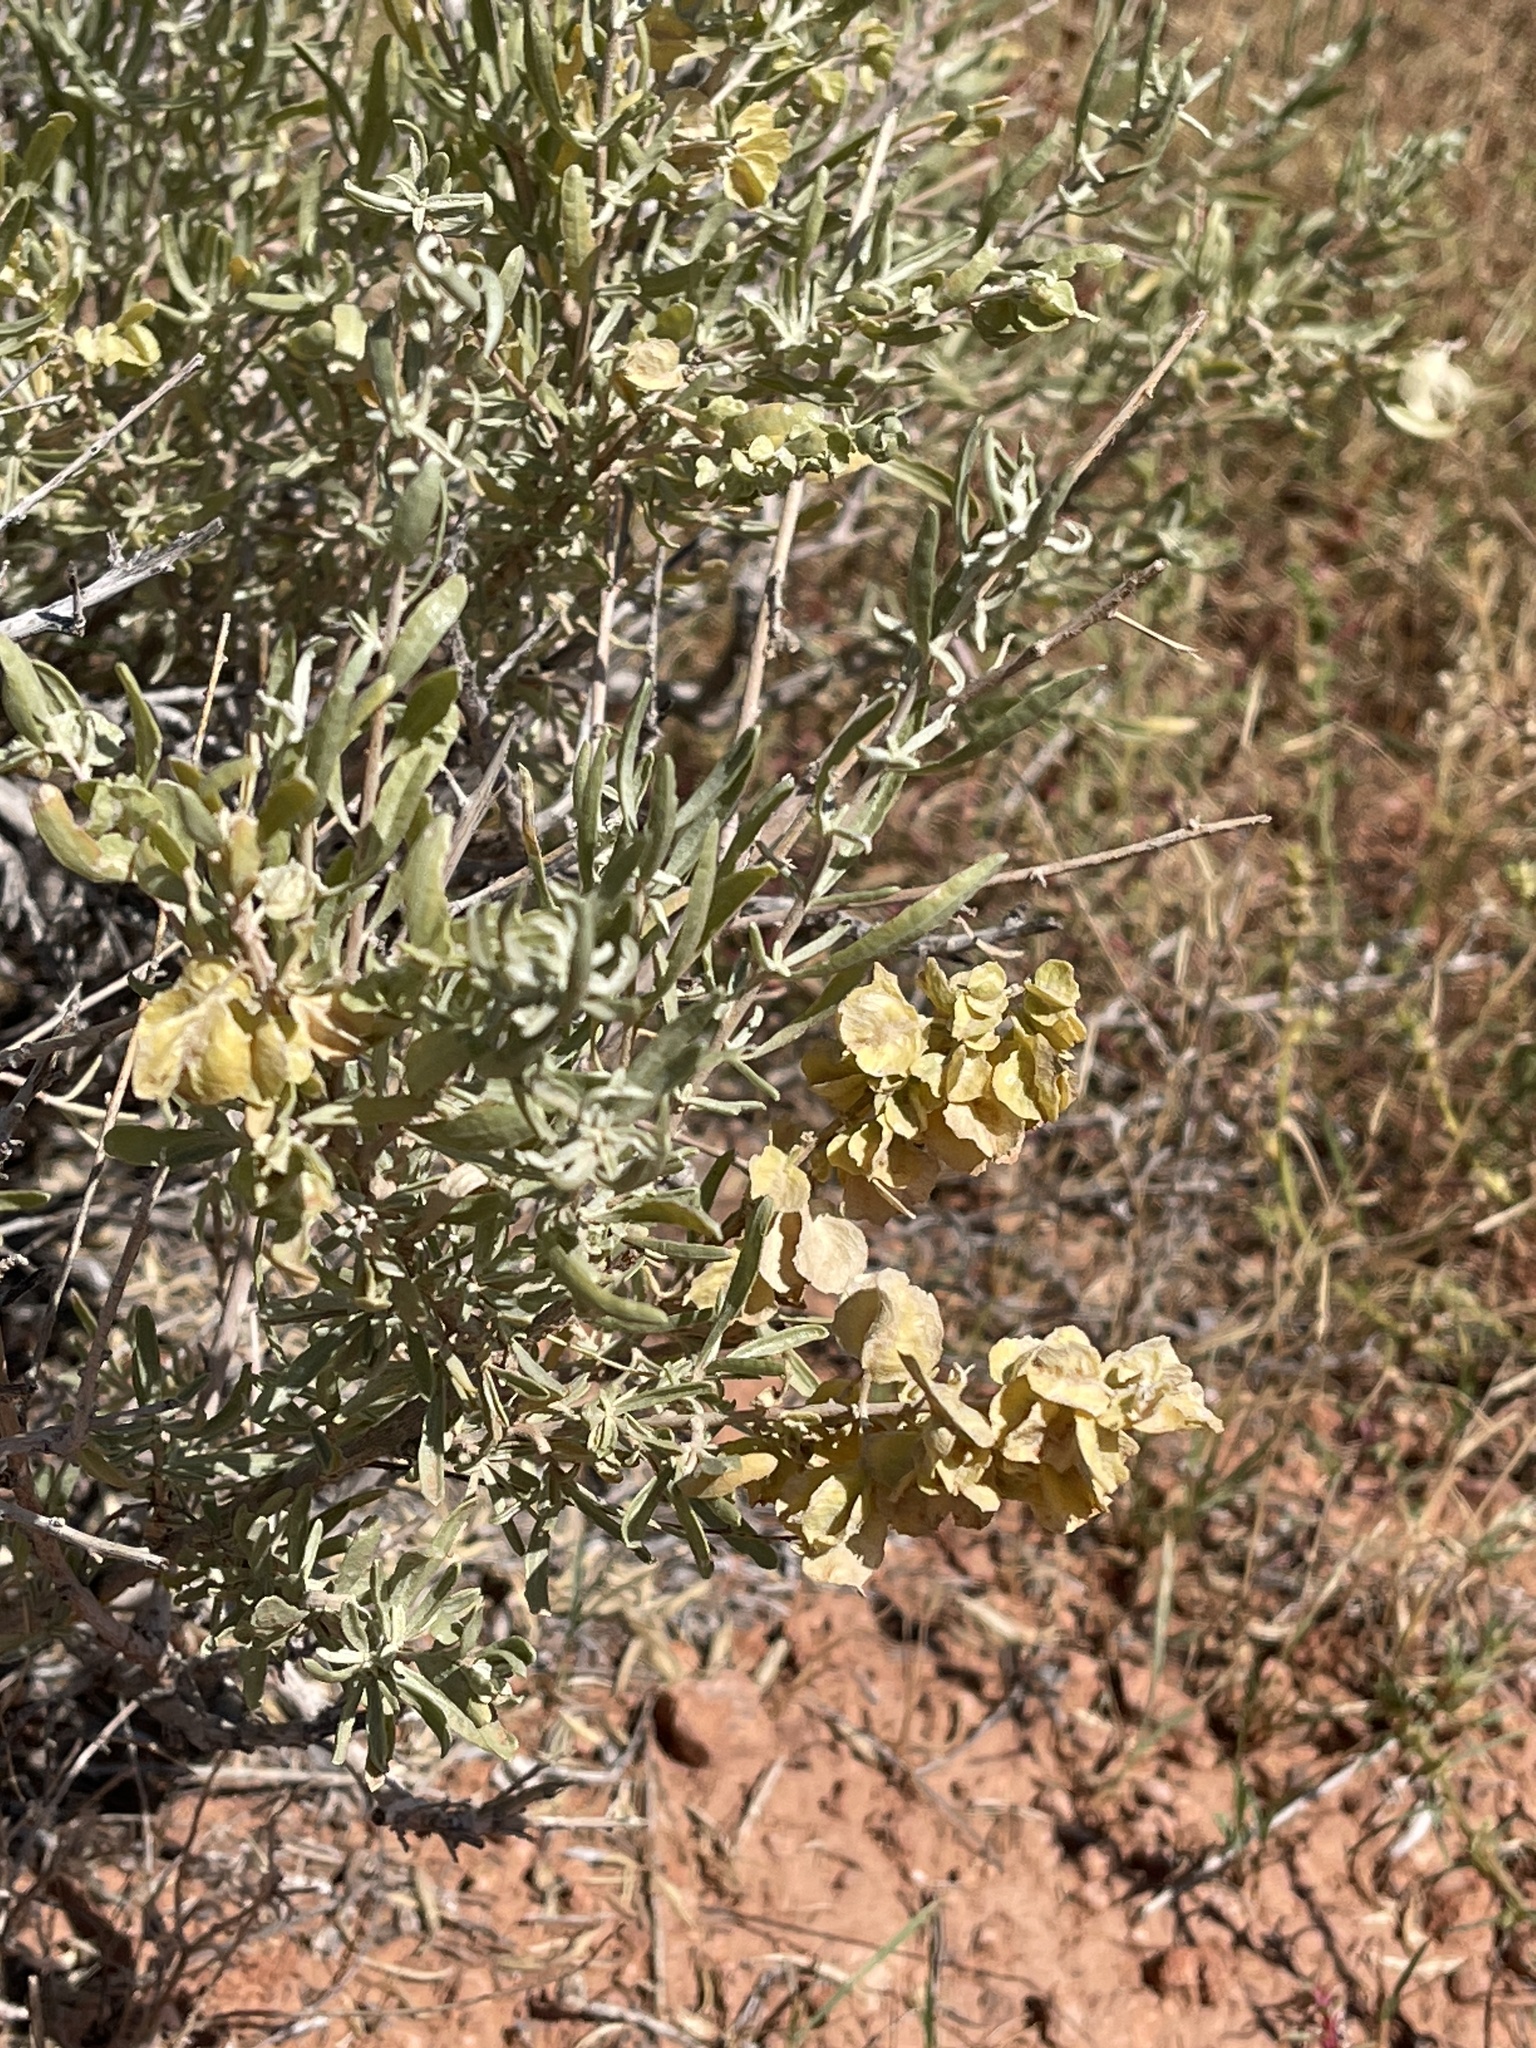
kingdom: Plantae
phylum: Tracheophyta
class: Magnoliopsida
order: Caryophyllales
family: Amaranthaceae
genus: Atriplex
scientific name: Atriplex canescens
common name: Four-wing saltbush
